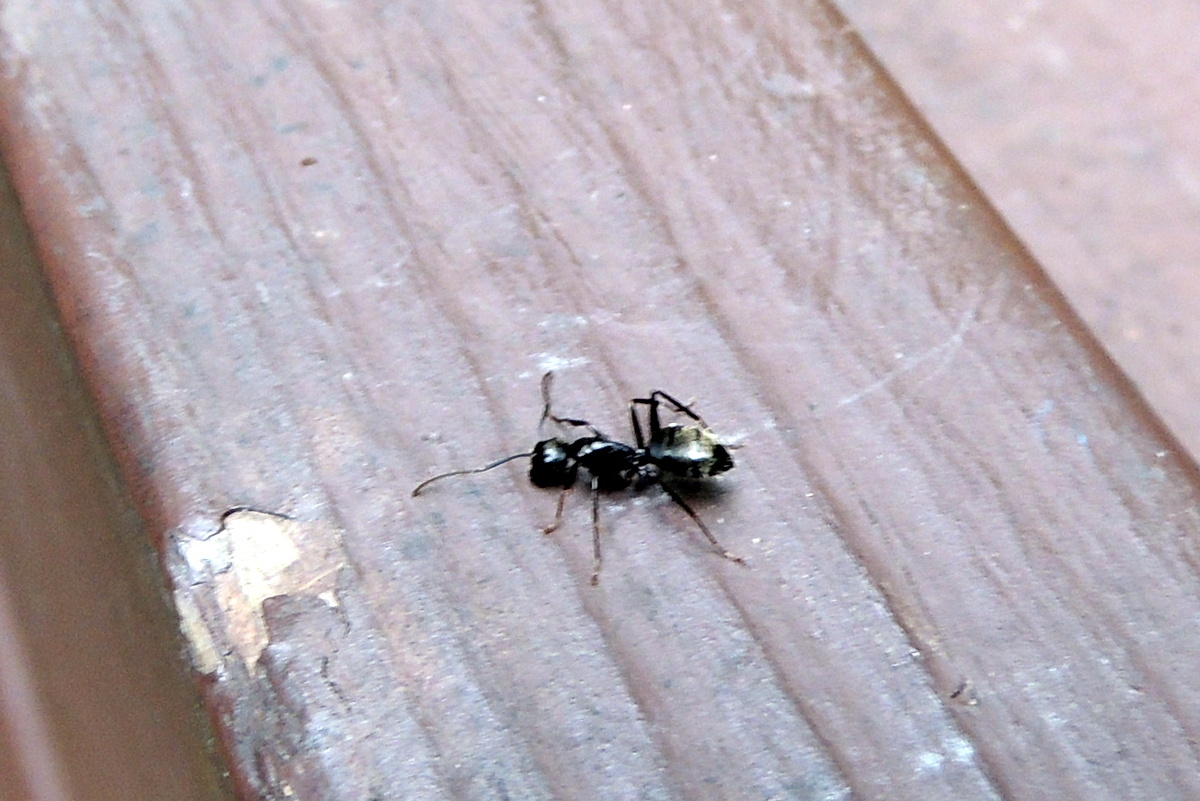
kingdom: Animalia
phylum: Arthropoda
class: Insecta
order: Hymenoptera
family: Formicidae
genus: Camponotus
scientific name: Camponotus pennsylvanicus
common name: Black carpenter ant
